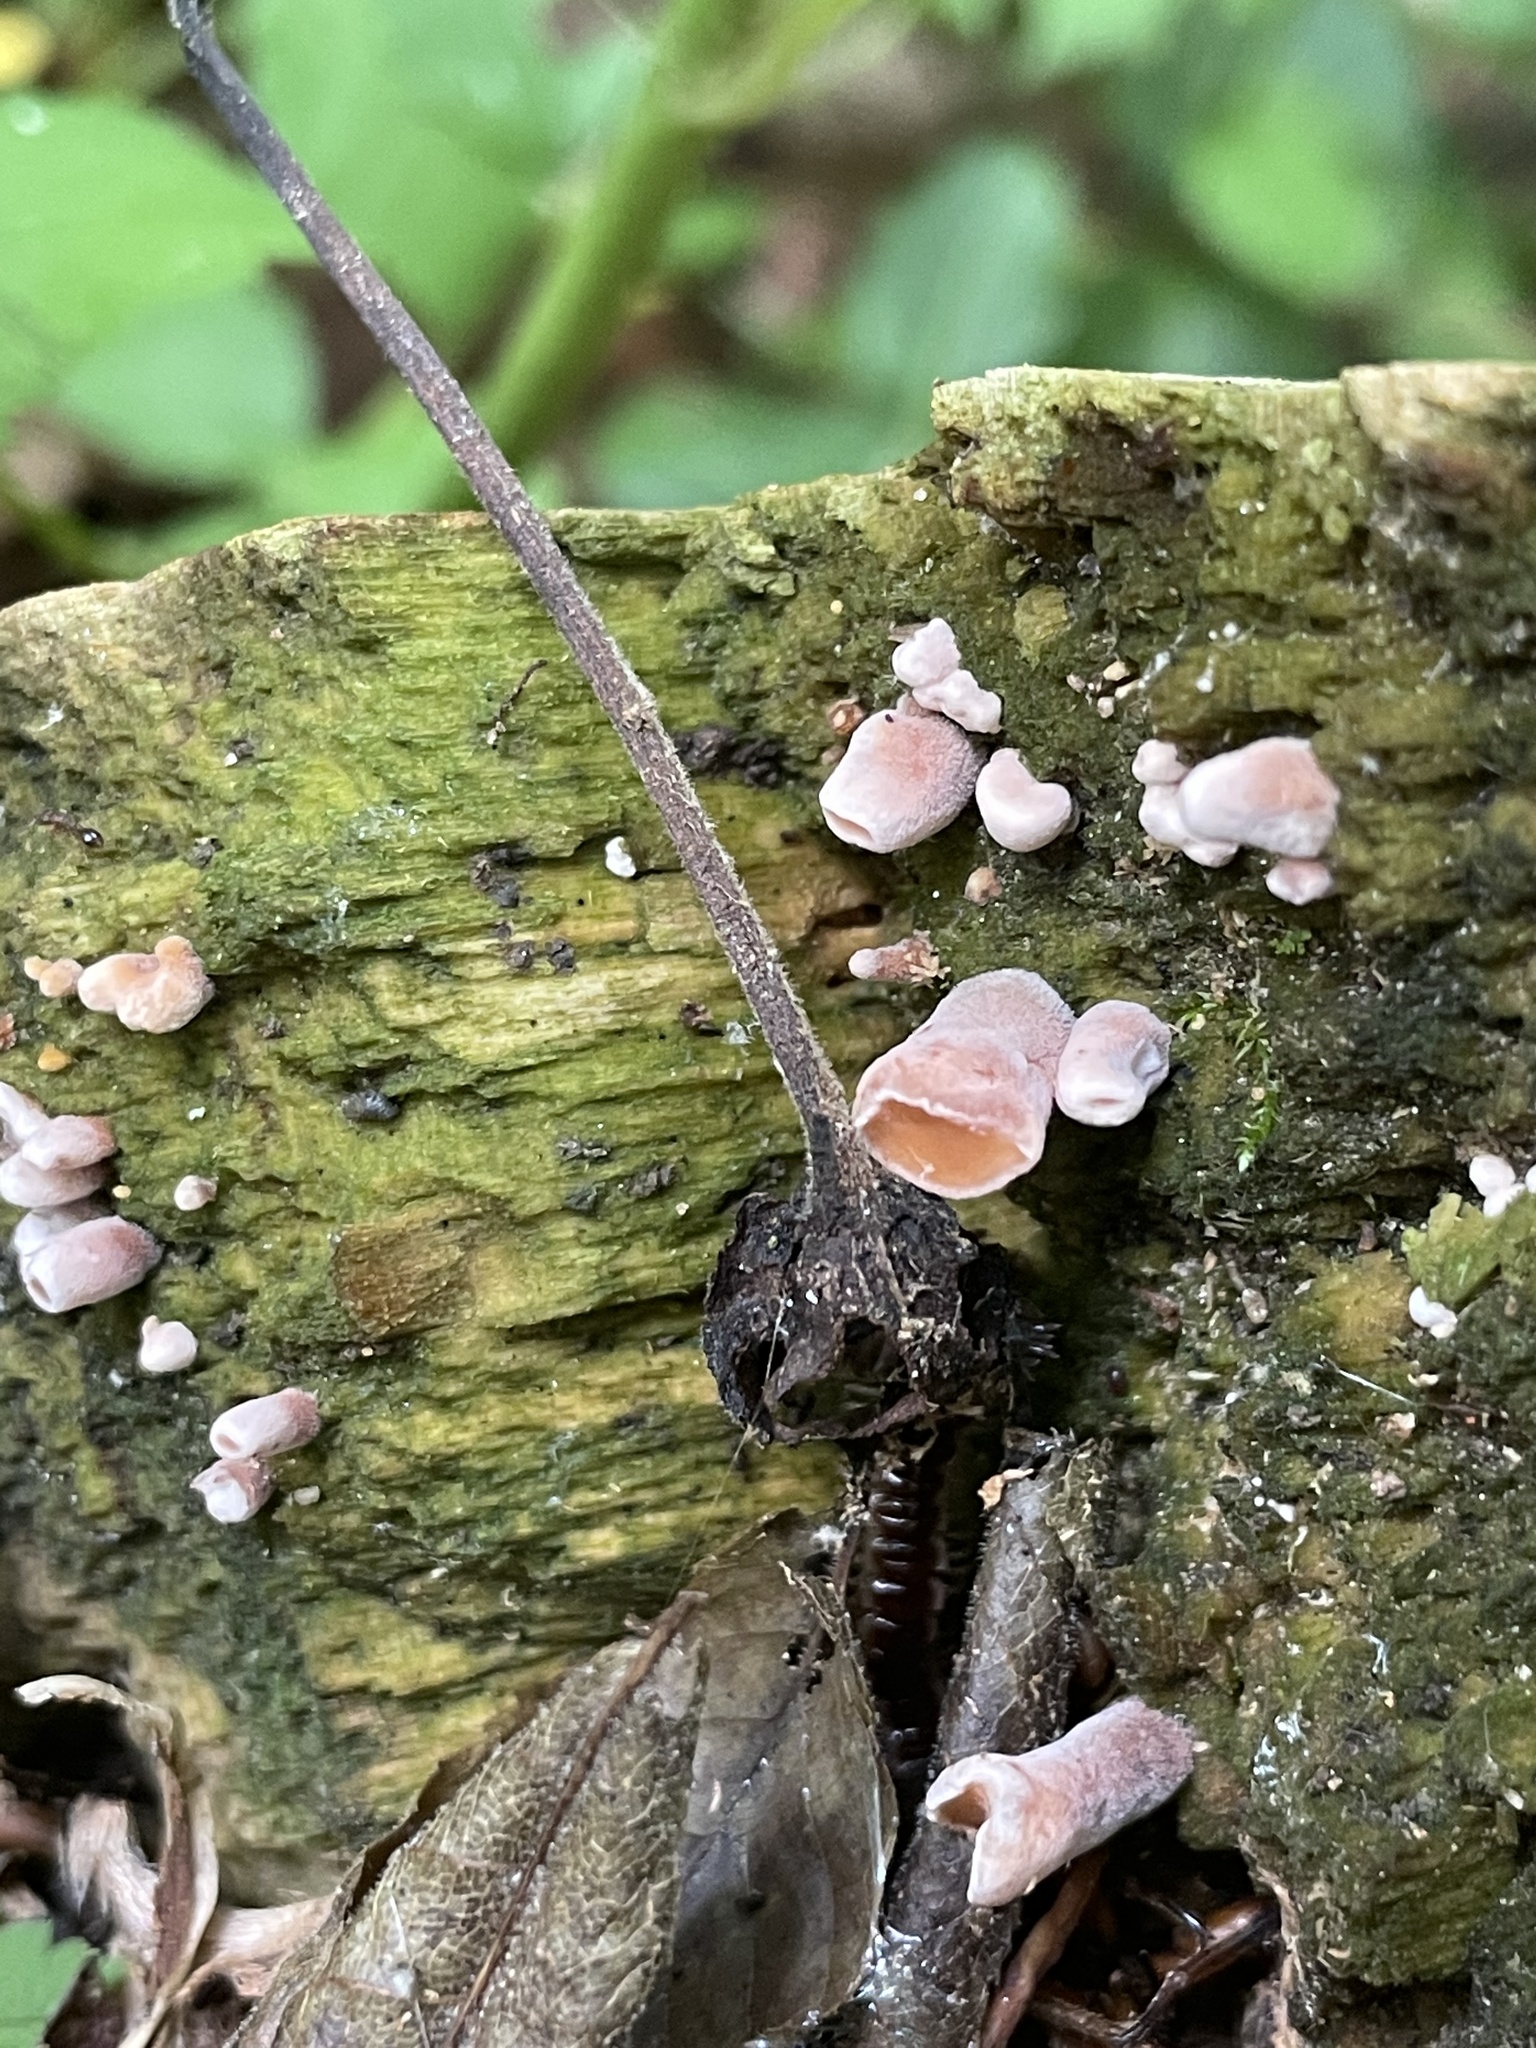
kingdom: Fungi
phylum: Basidiomycota
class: Dacrymycetes
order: Dacrymycetales
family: Dacrymycetaceae
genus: Dacryopinax
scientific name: Dacryopinax elegans
